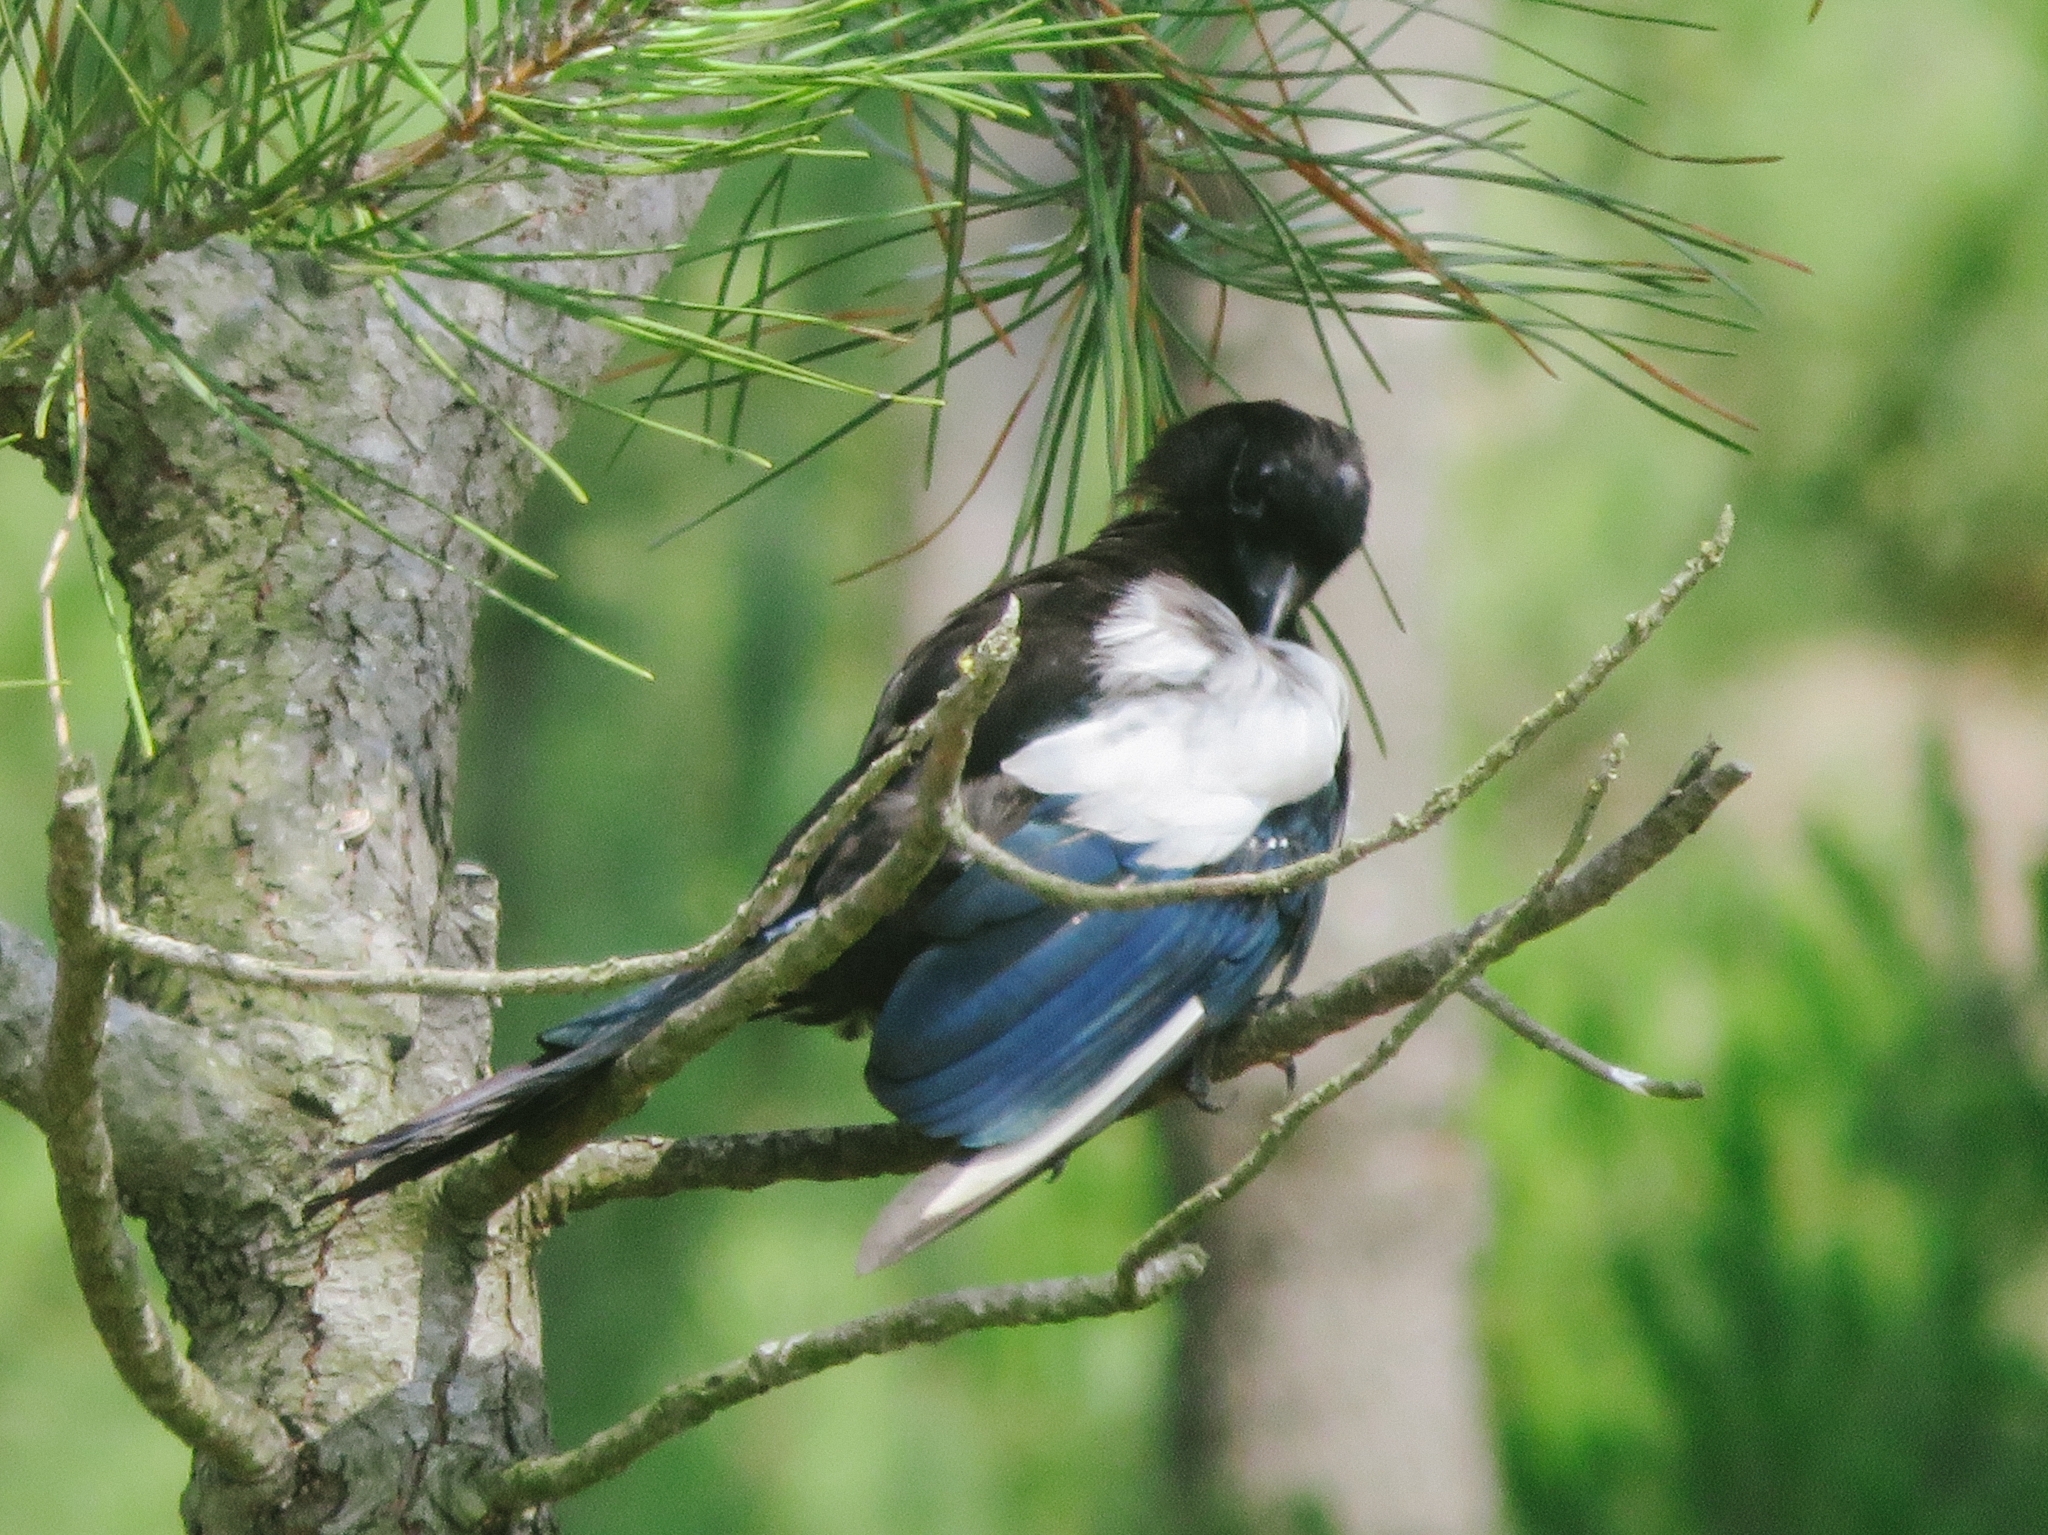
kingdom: Animalia
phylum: Chordata
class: Aves
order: Passeriformes
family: Corvidae
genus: Pica
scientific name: Pica pica
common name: Eurasian magpie
